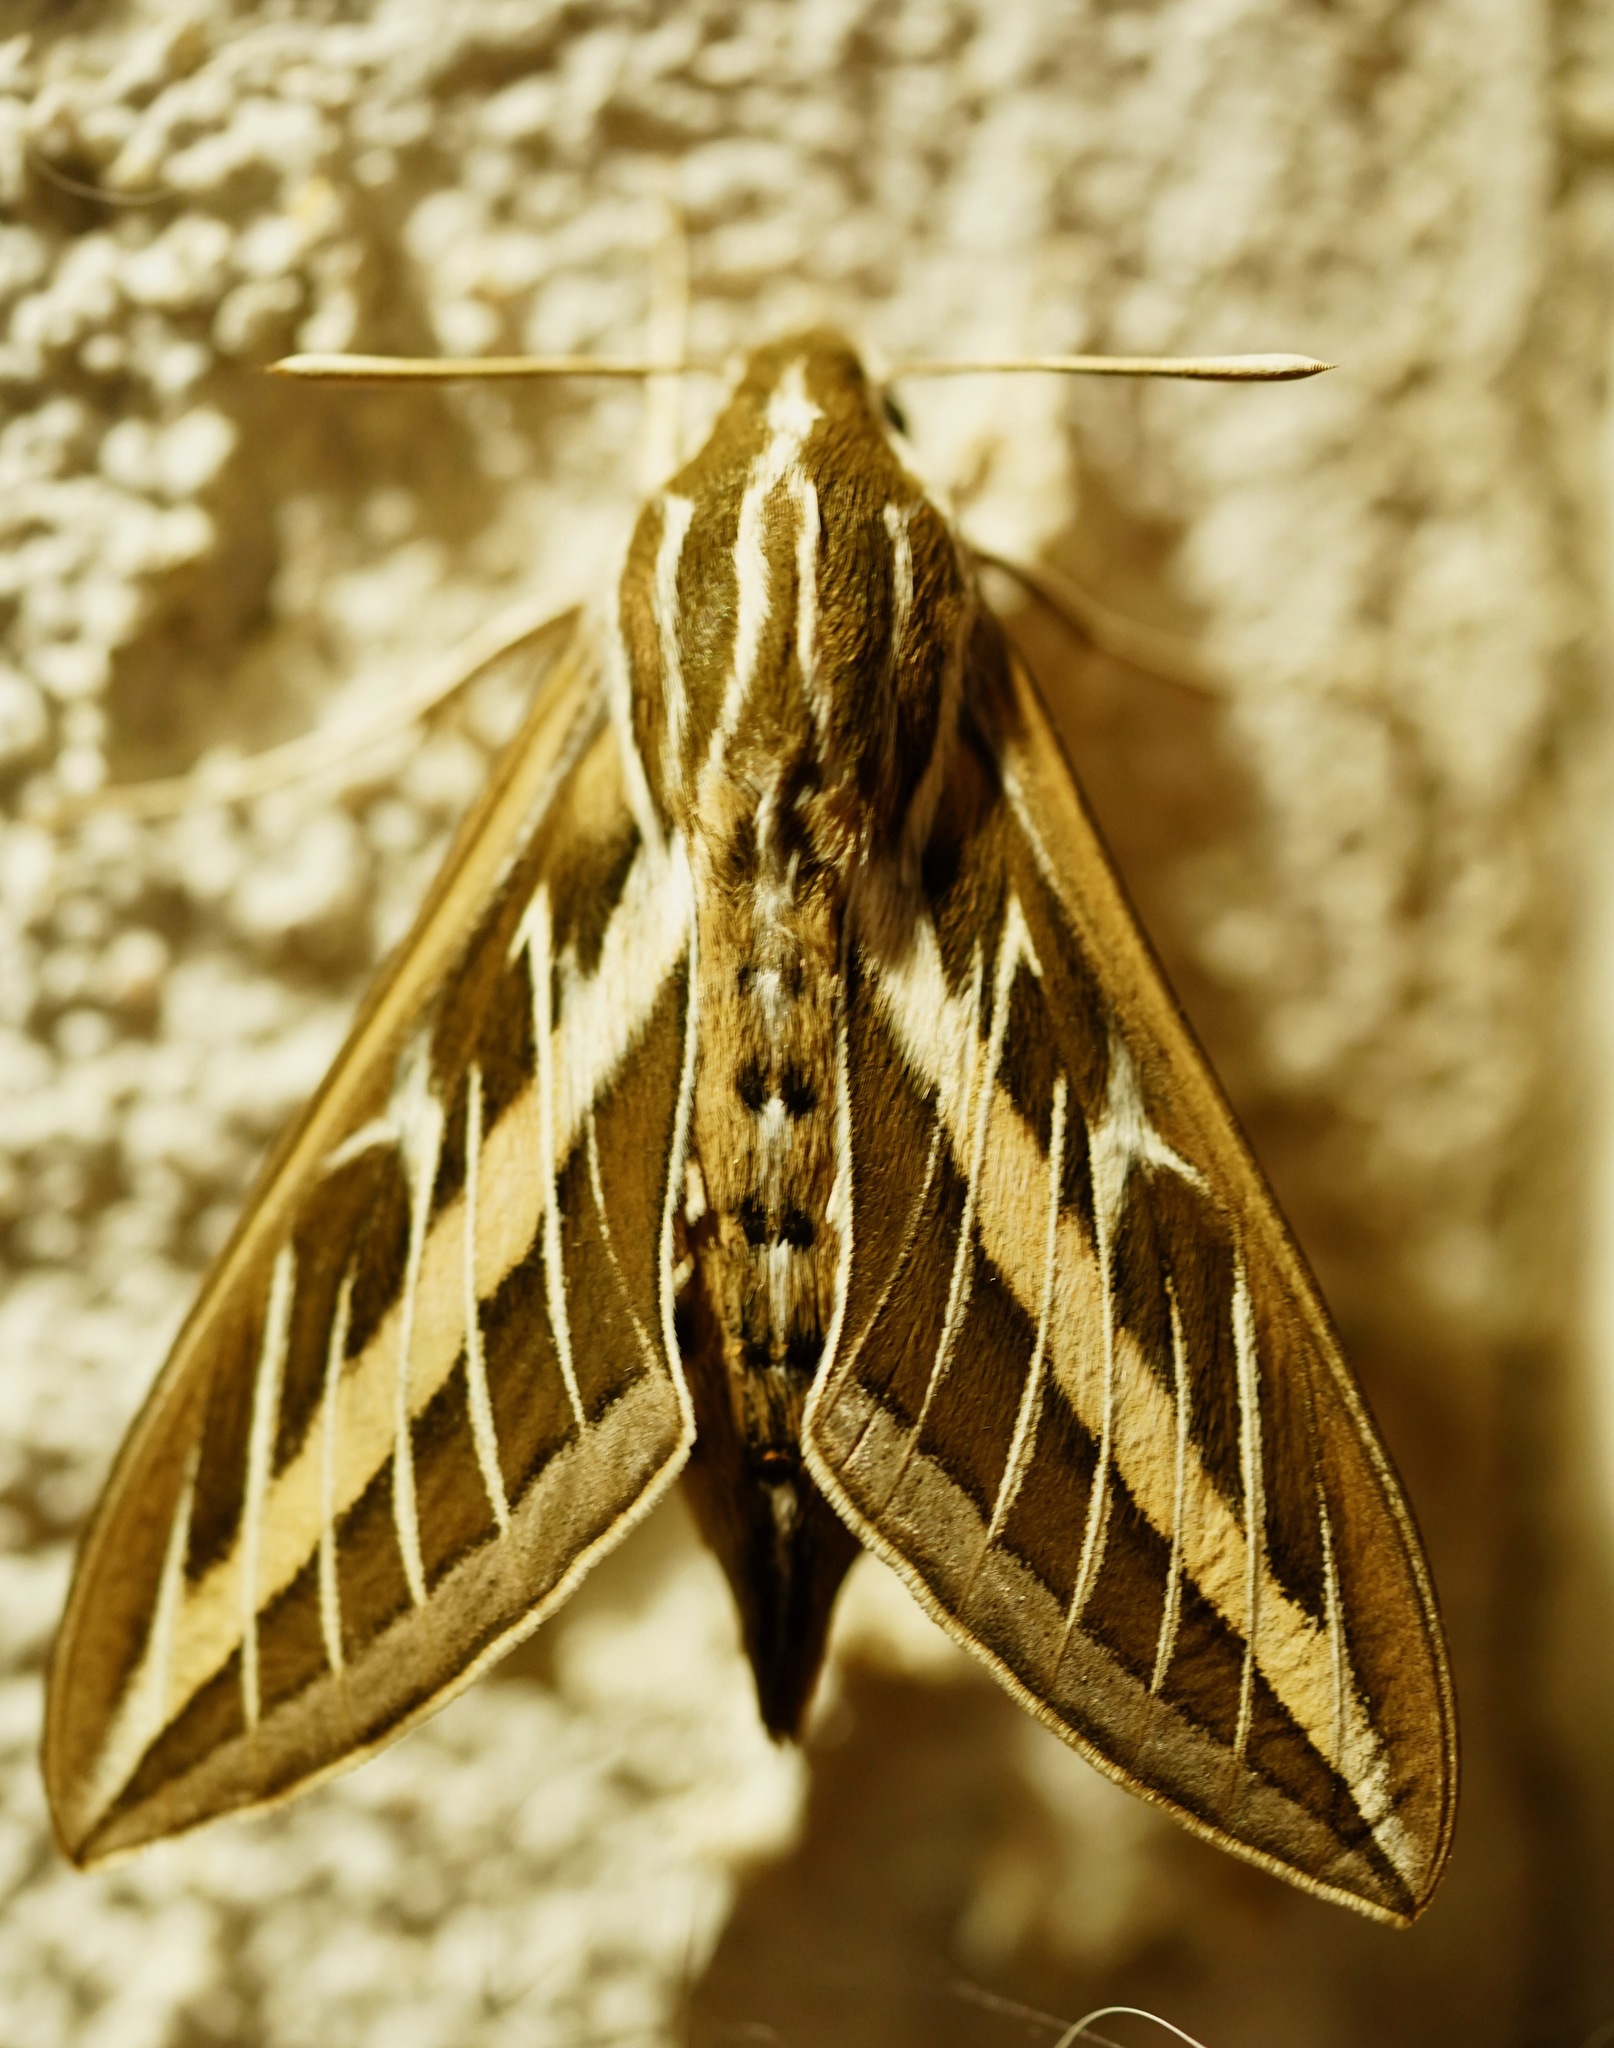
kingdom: Animalia
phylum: Arthropoda
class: Insecta
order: Lepidoptera
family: Sphingidae
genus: Hyles
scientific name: Hyles lineata
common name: White-lined sphinx
